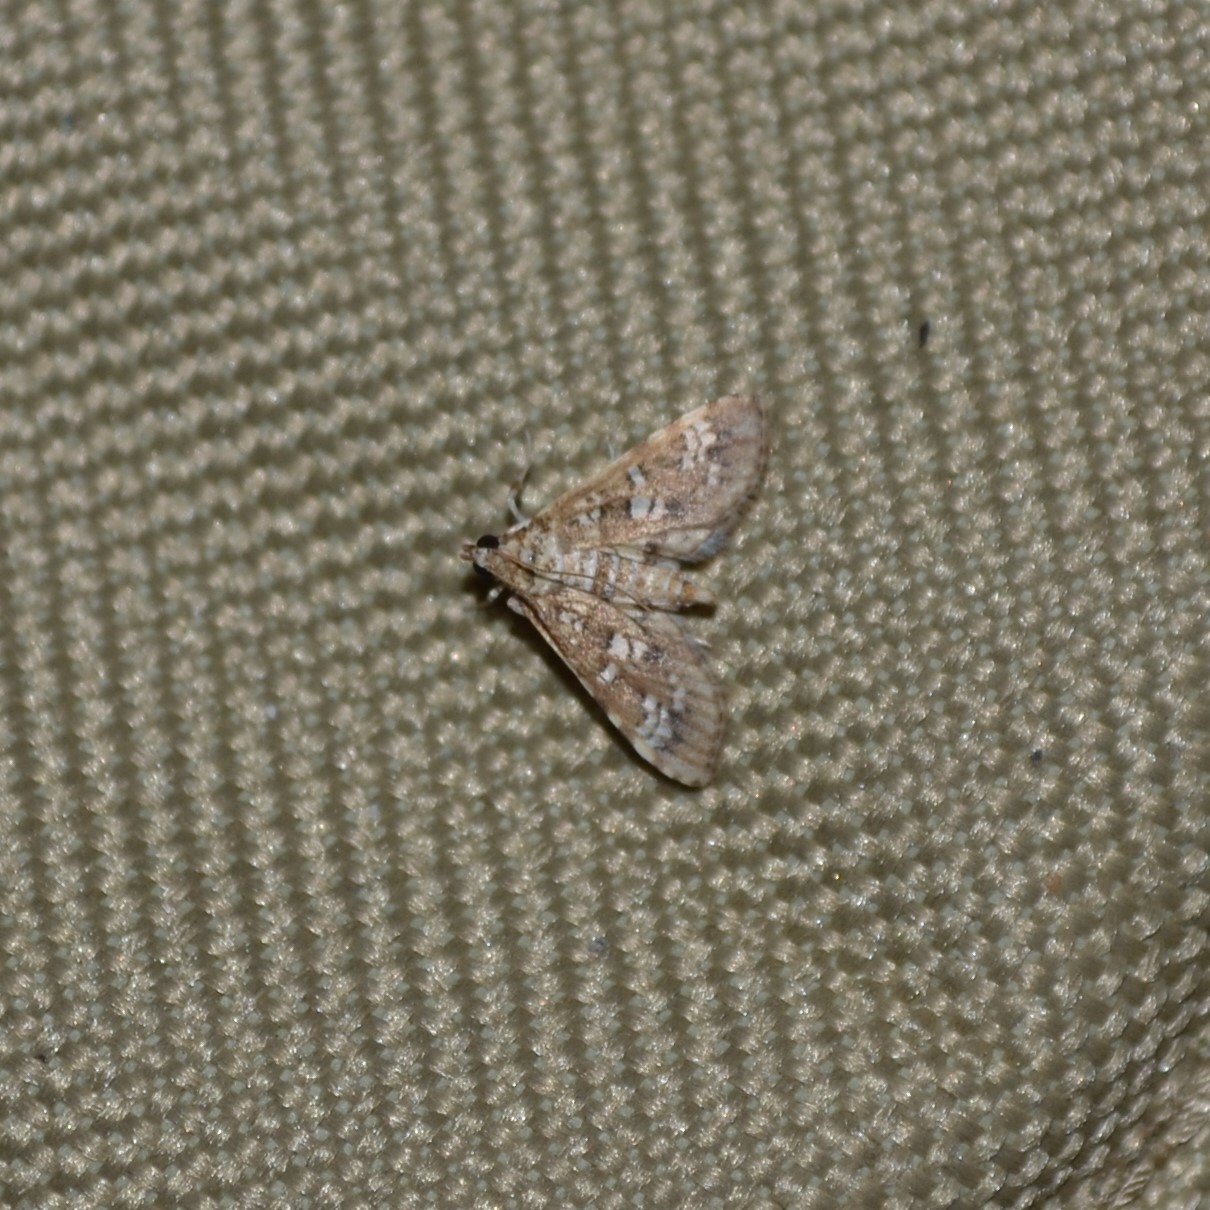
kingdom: Animalia
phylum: Arthropoda
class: Insecta
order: Lepidoptera
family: Crambidae
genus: Samea
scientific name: Samea multiplicalis
